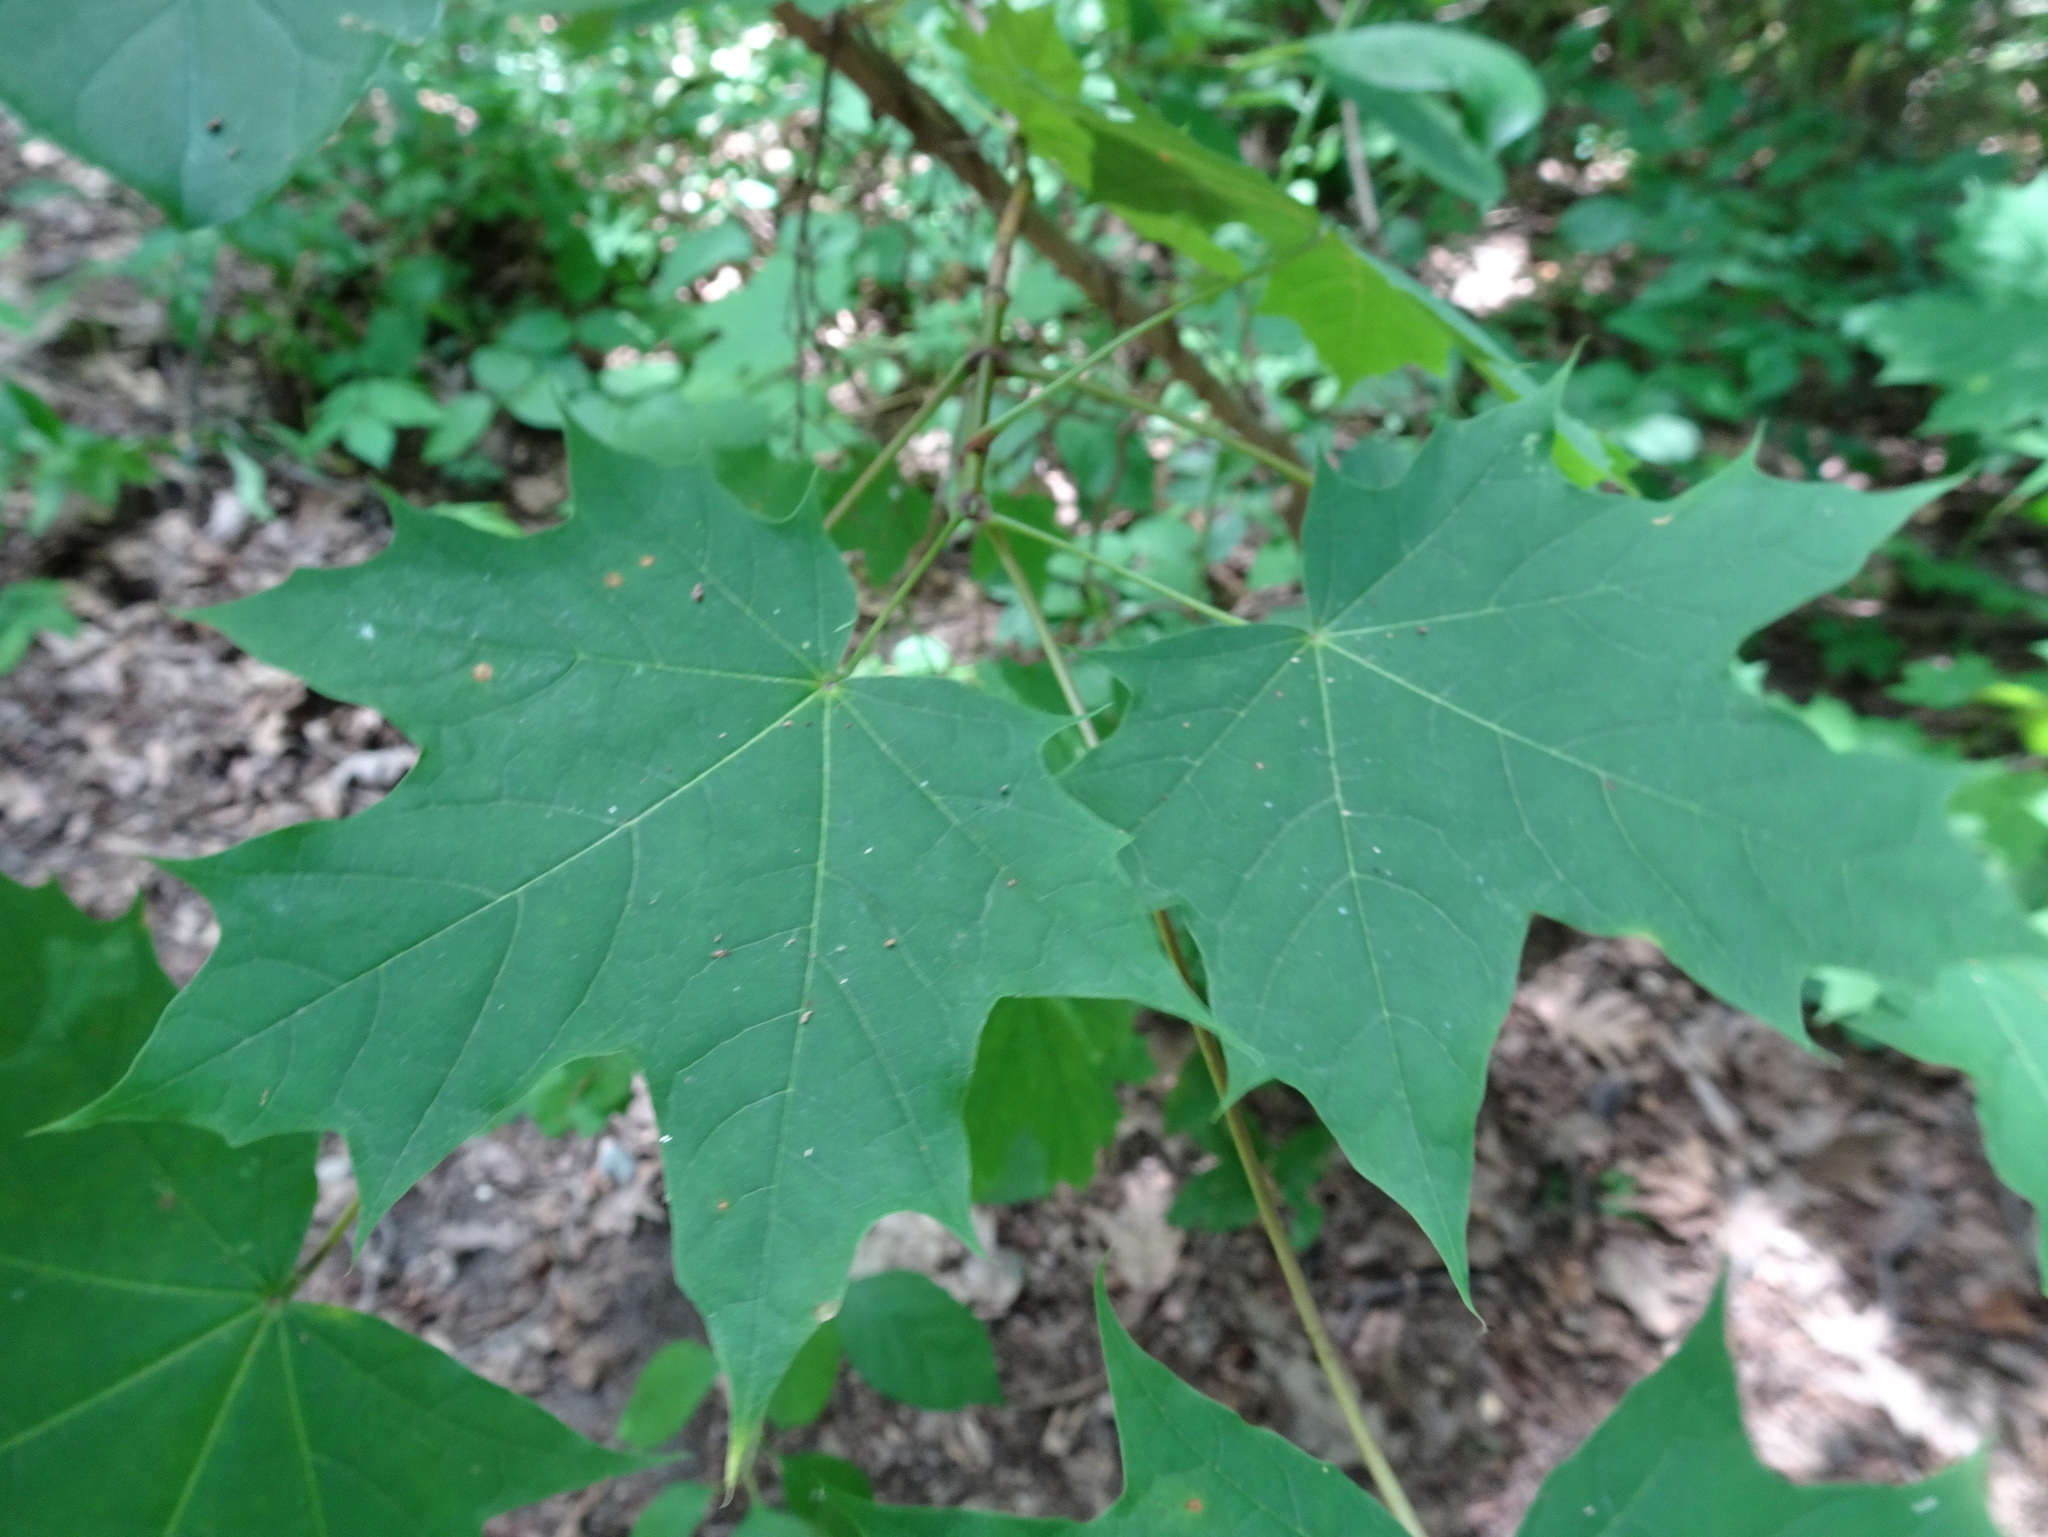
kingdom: Plantae
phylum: Tracheophyta
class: Magnoliopsida
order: Sapindales
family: Sapindaceae
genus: Acer
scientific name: Acer platanoides
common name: Norway maple
